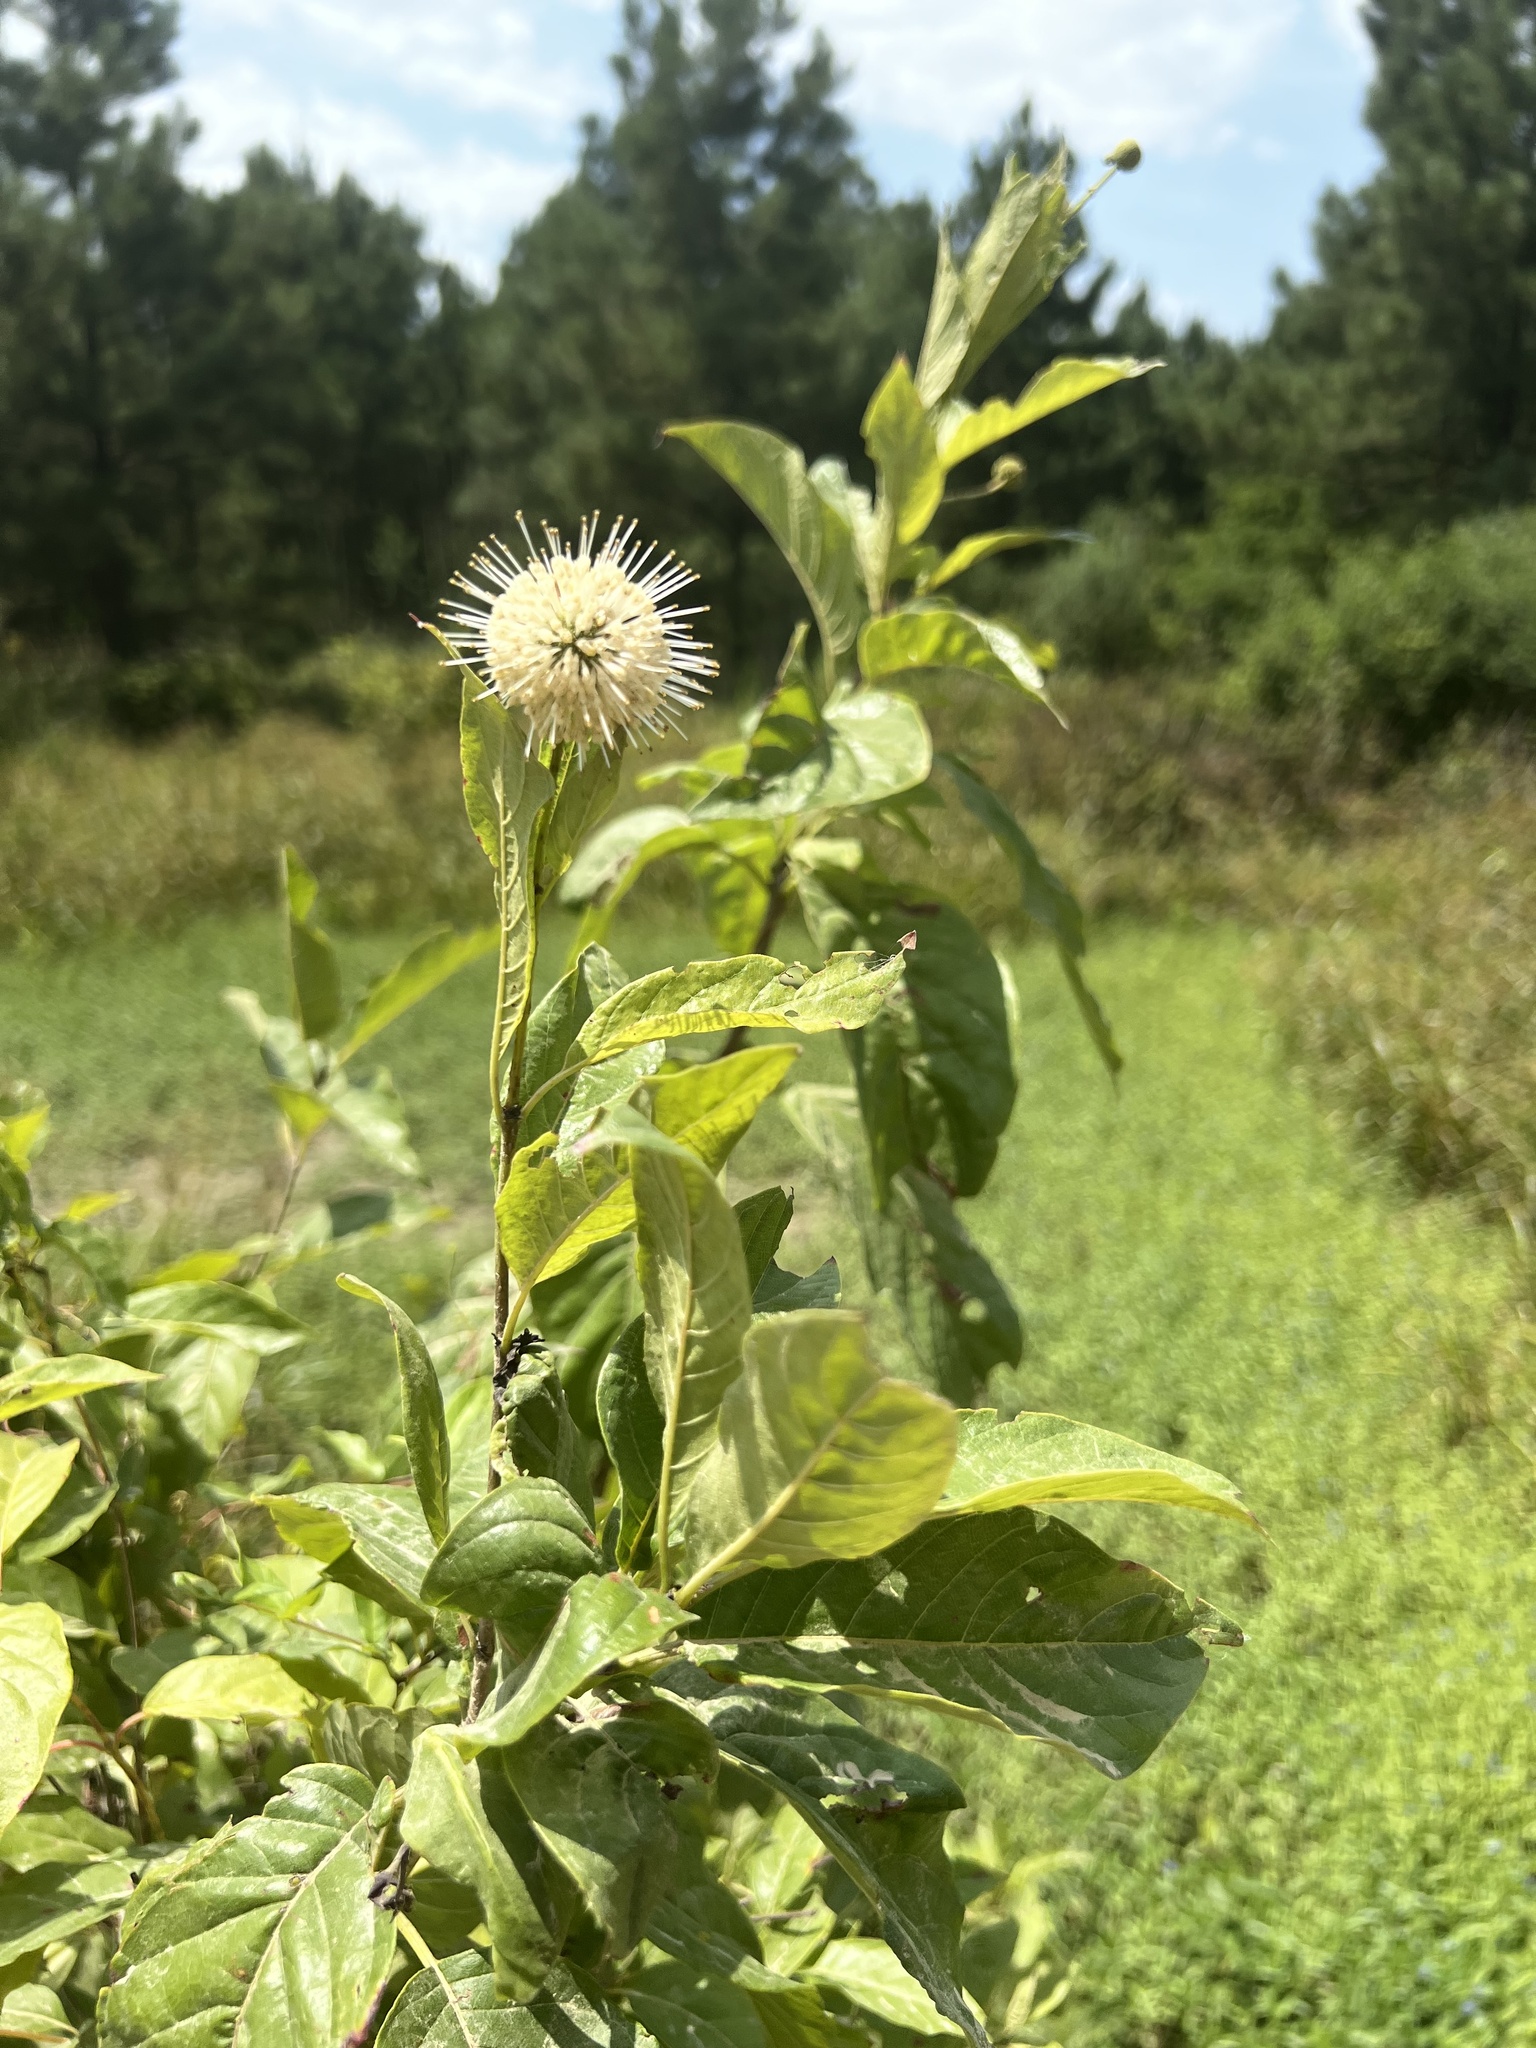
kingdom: Plantae
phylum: Tracheophyta
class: Magnoliopsida
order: Gentianales
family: Rubiaceae
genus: Cephalanthus
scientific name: Cephalanthus occidentalis
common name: Button-willow
